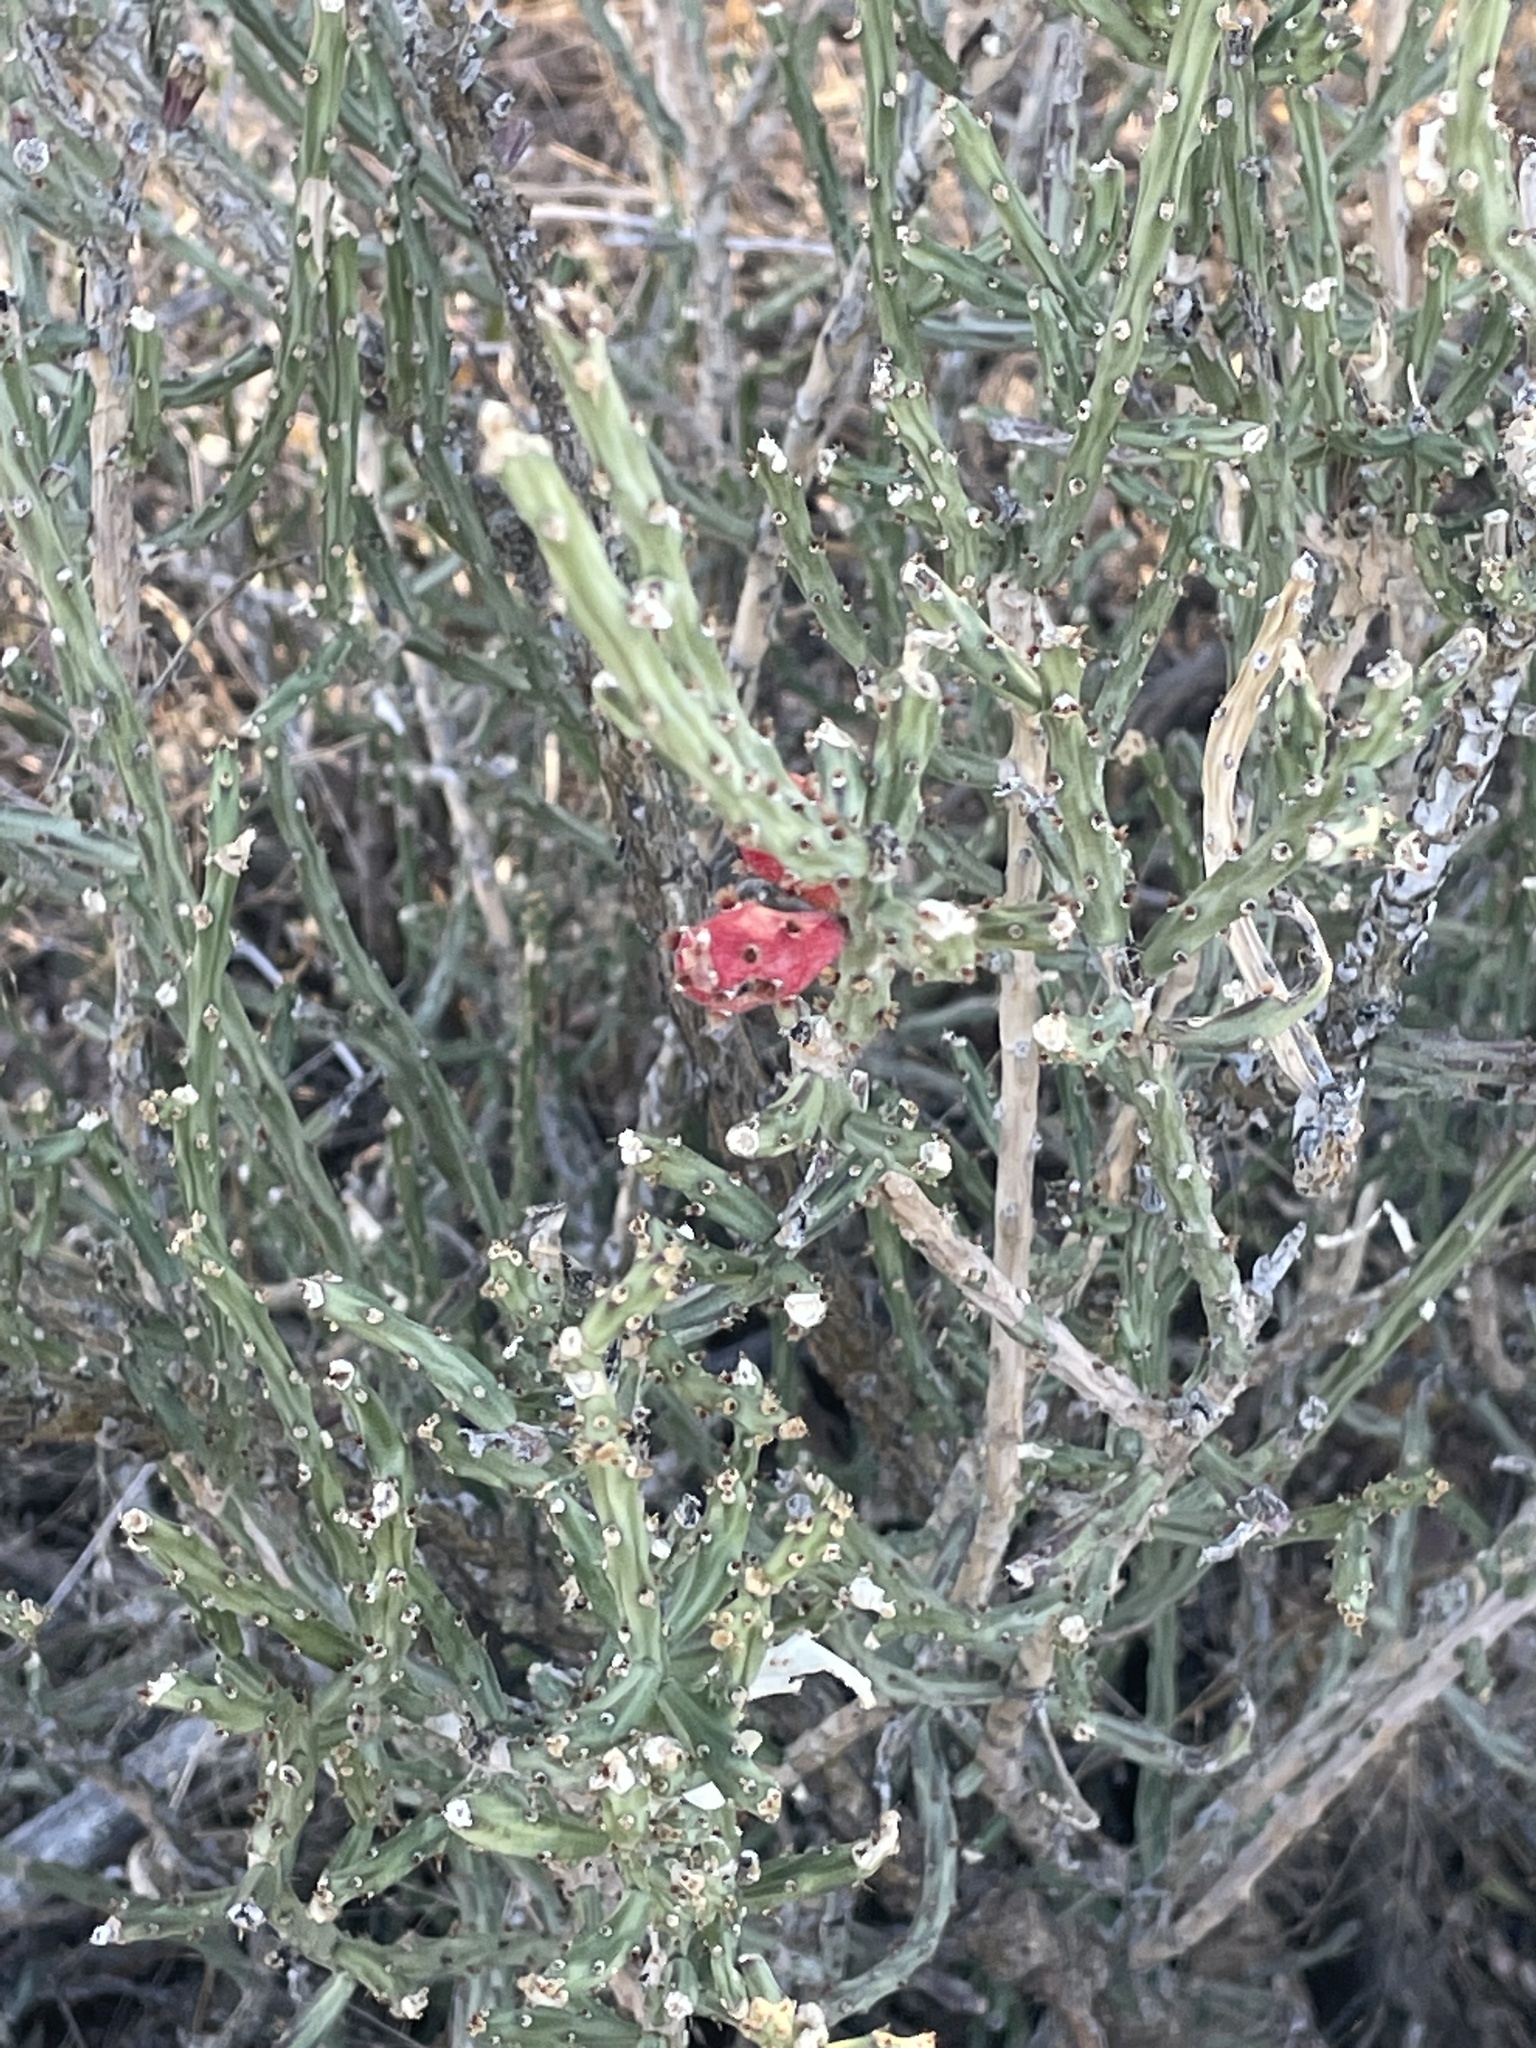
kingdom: Plantae
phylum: Tracheophyta
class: Magnoliopsida
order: Caryophyllales
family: Cactaceae
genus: Cylindropuntia
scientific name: Cylindropuntia leptocaulis
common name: Christmas cactus
